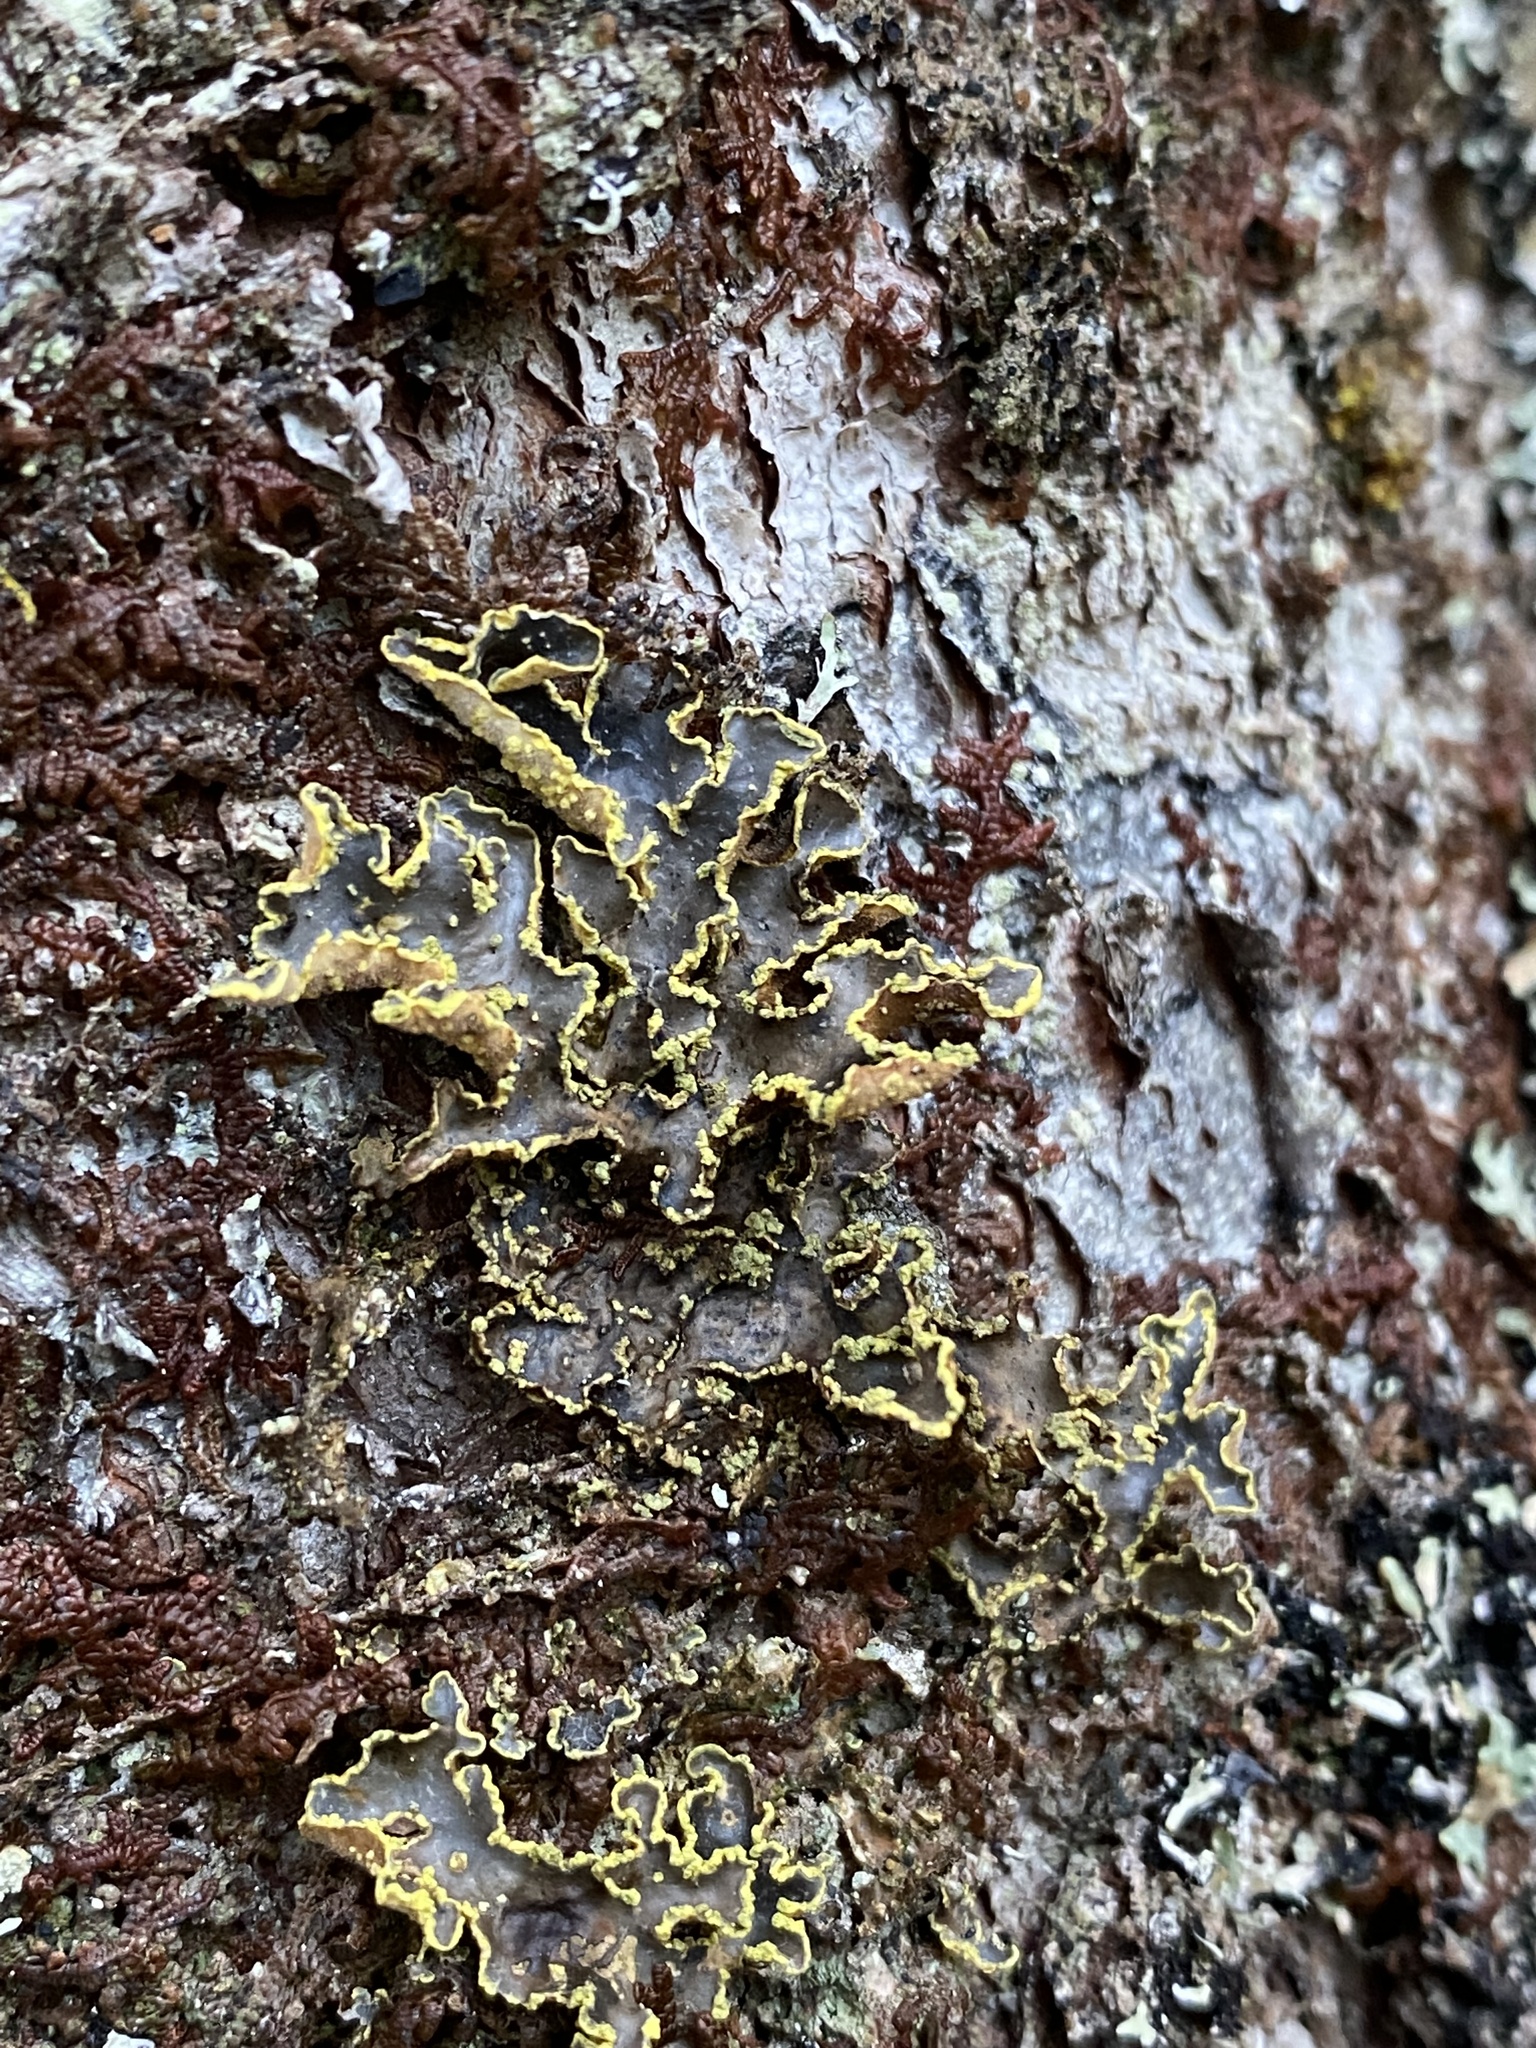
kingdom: Fungi
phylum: Ascomycota
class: Lecanoromycetes
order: Peltigerales
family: Lobariaceae
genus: Pseudocyphellaria
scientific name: Pseudocyphellaria holarctica
